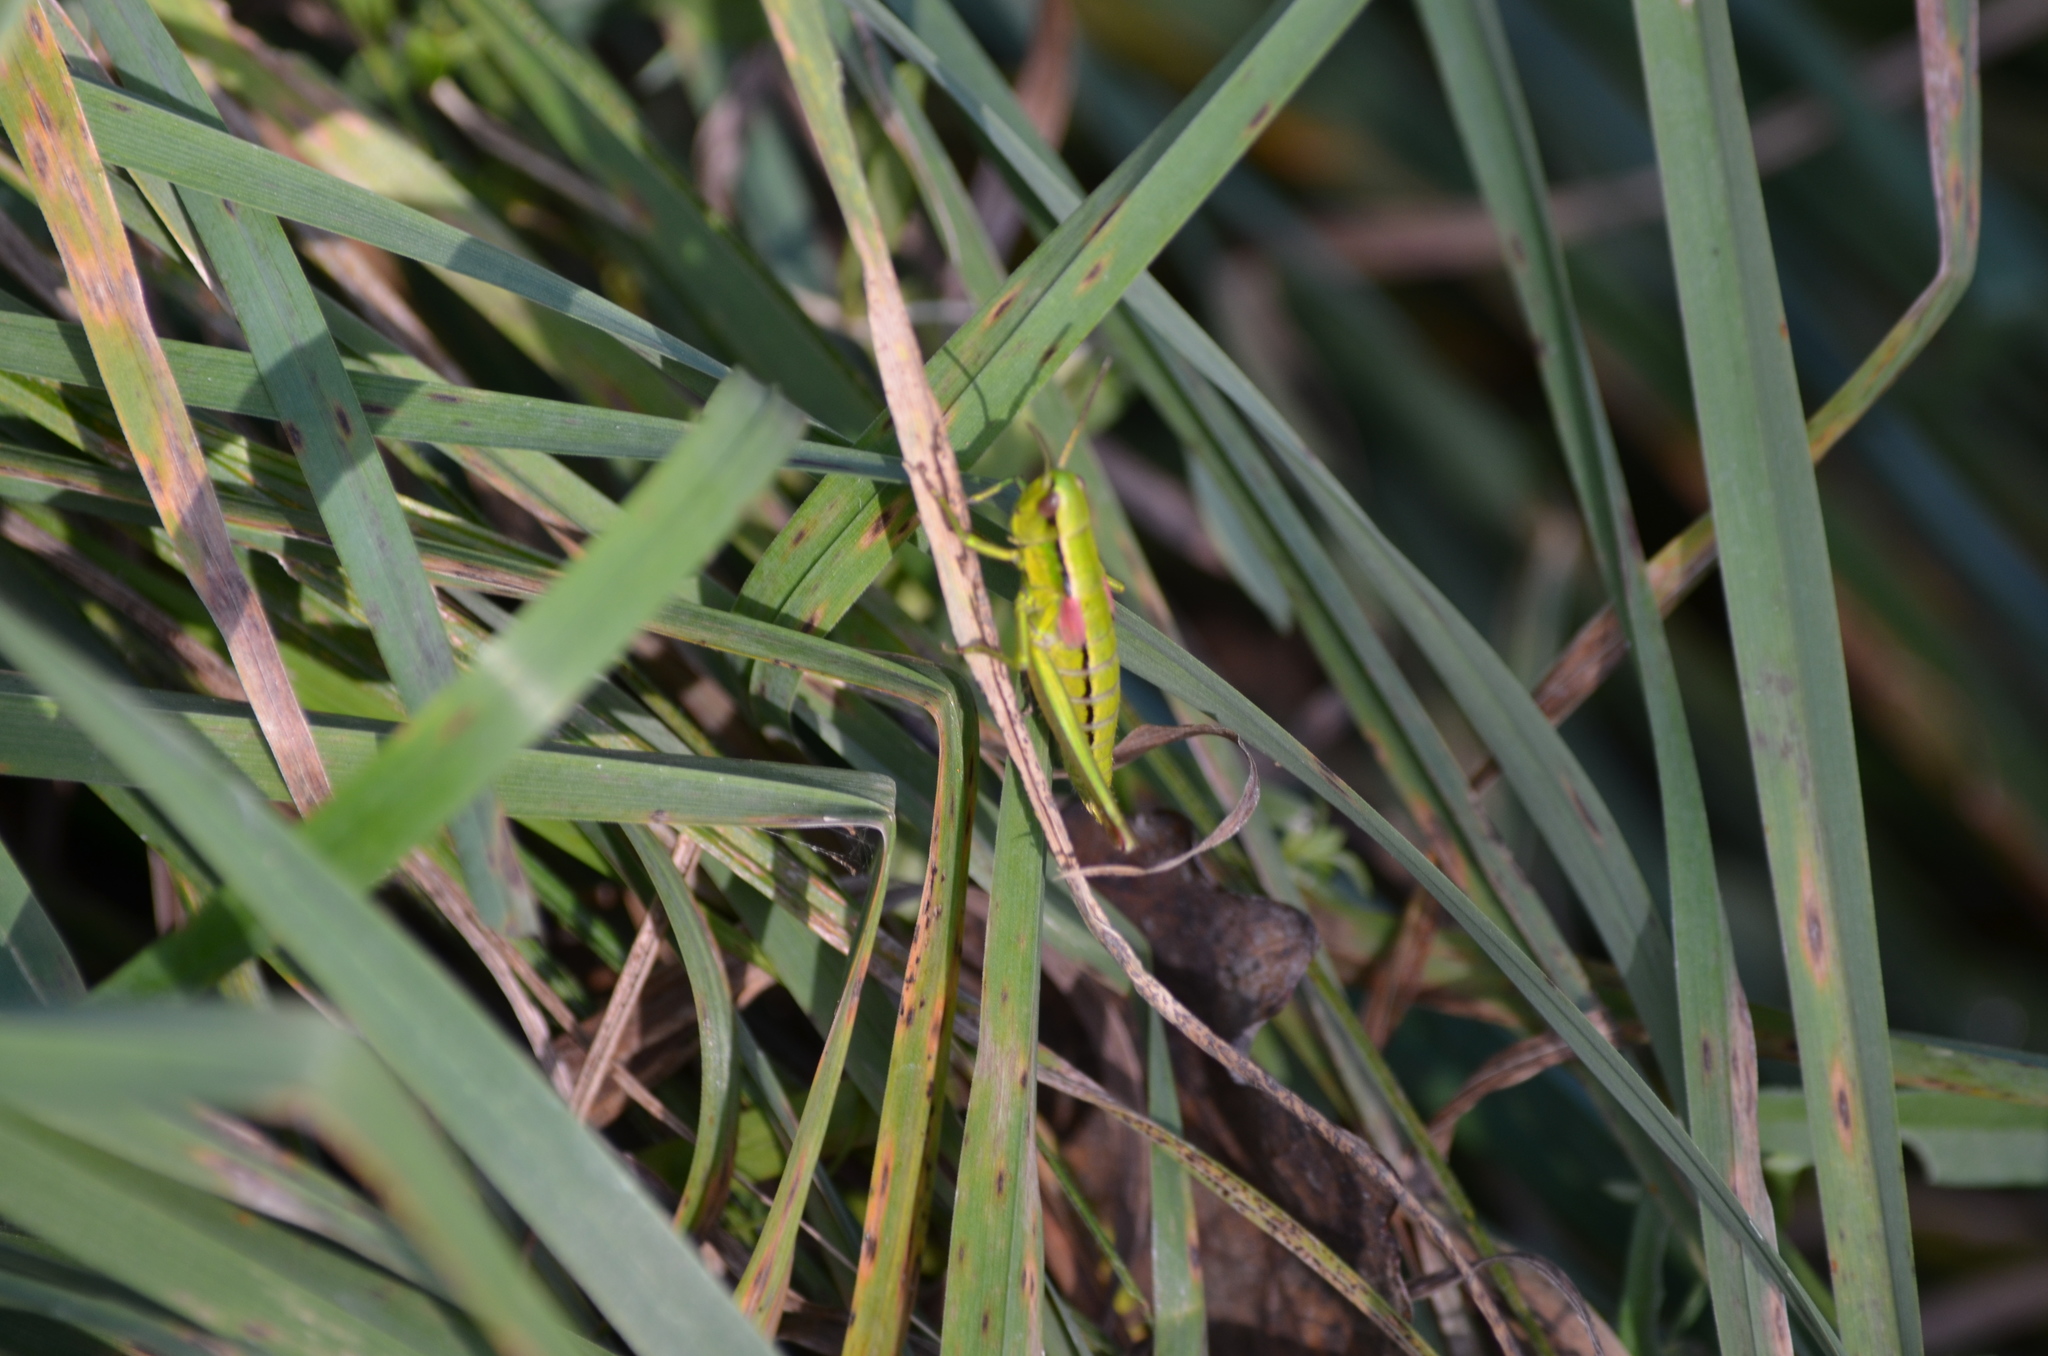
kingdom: Animalia
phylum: Arthropoda
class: Insecta
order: Orthoptera
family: Acrididae
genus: Euthystira
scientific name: Euthystira brachyptera
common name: Small gold grasshopper
